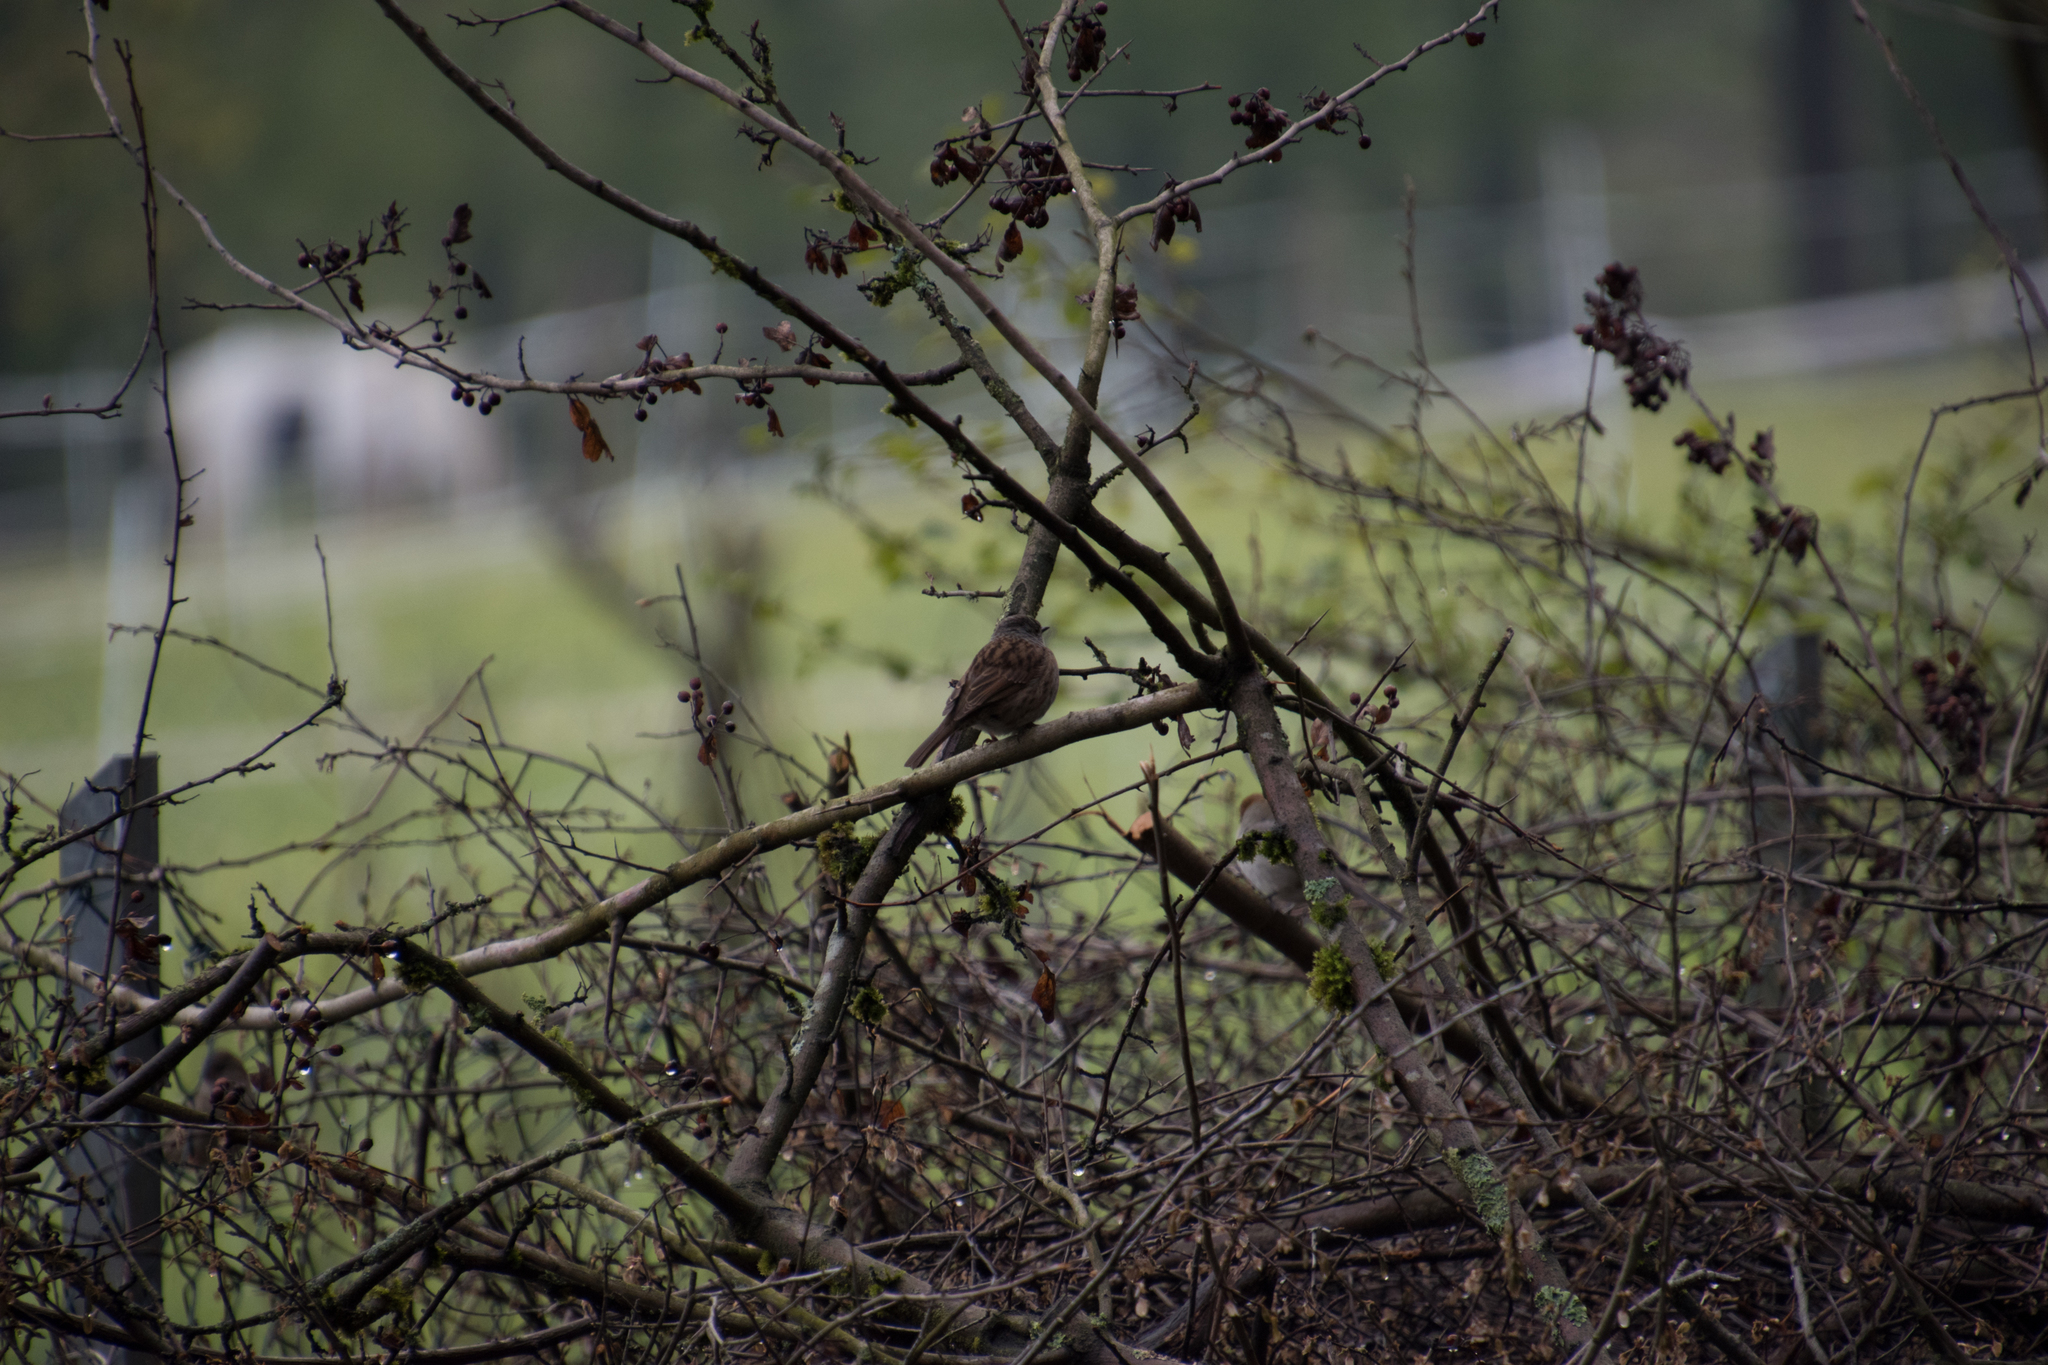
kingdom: Animalia
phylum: Chordata
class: Aves
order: Passeriformes
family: Prunellidae
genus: Prunella
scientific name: Prunella modularis
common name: Dunnock
